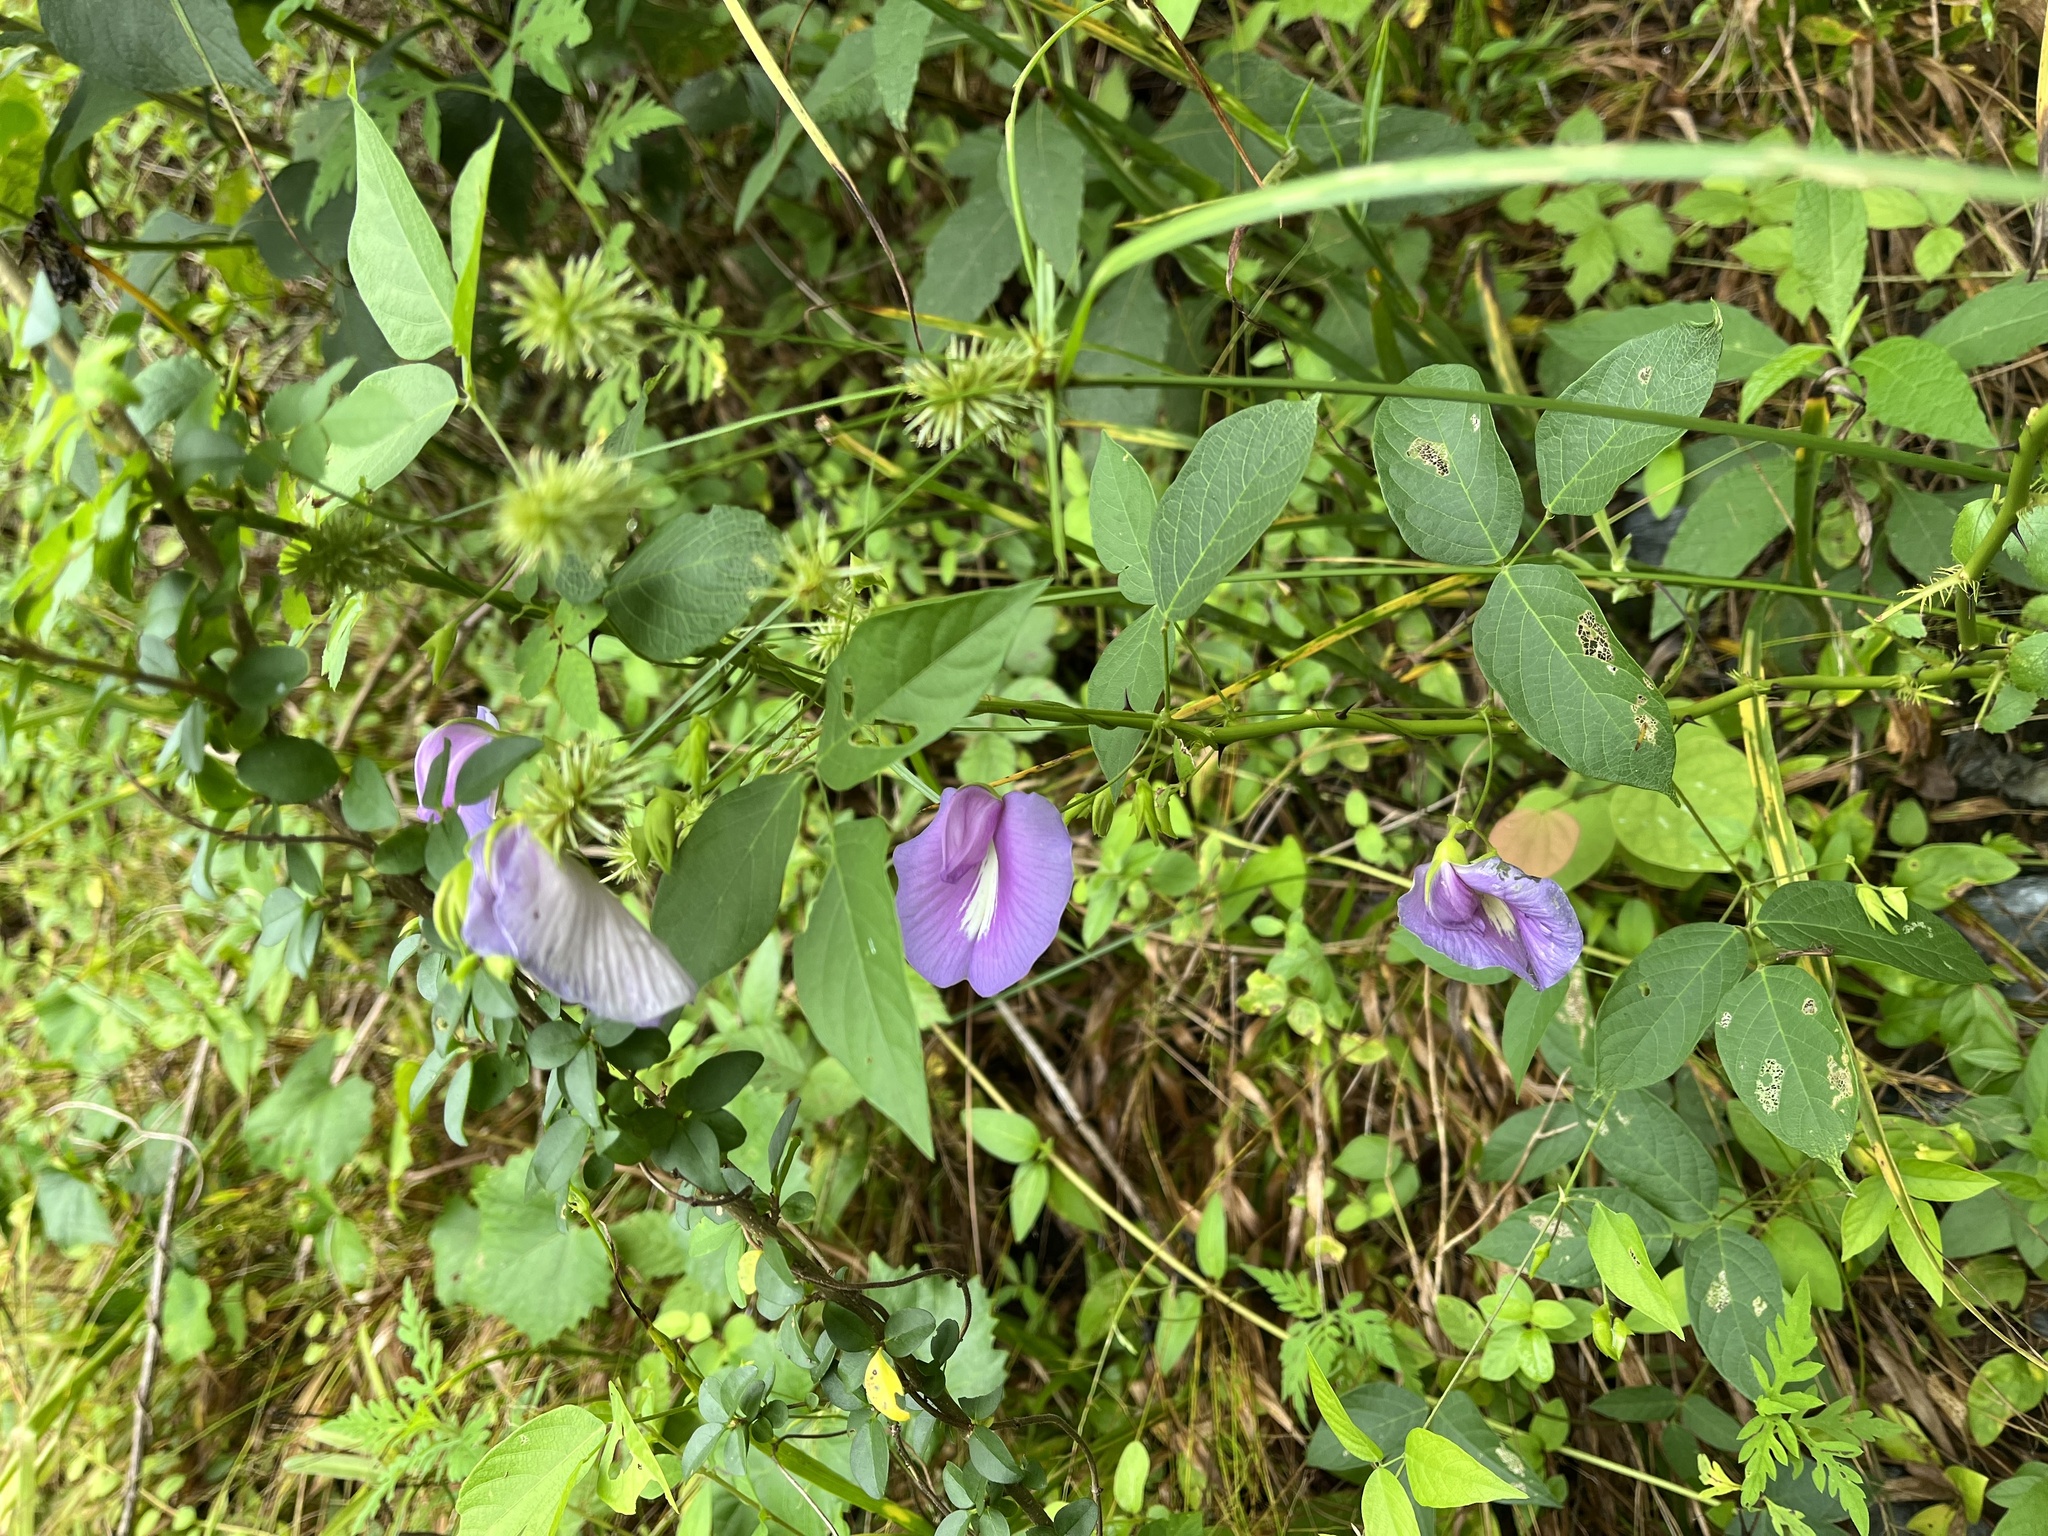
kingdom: Plantae
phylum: Tracheophyta
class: Magnoliopsida
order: Fabales
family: Fabaceae
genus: Centrosema
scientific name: Centrosema virginianum
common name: Butterfly-pea
